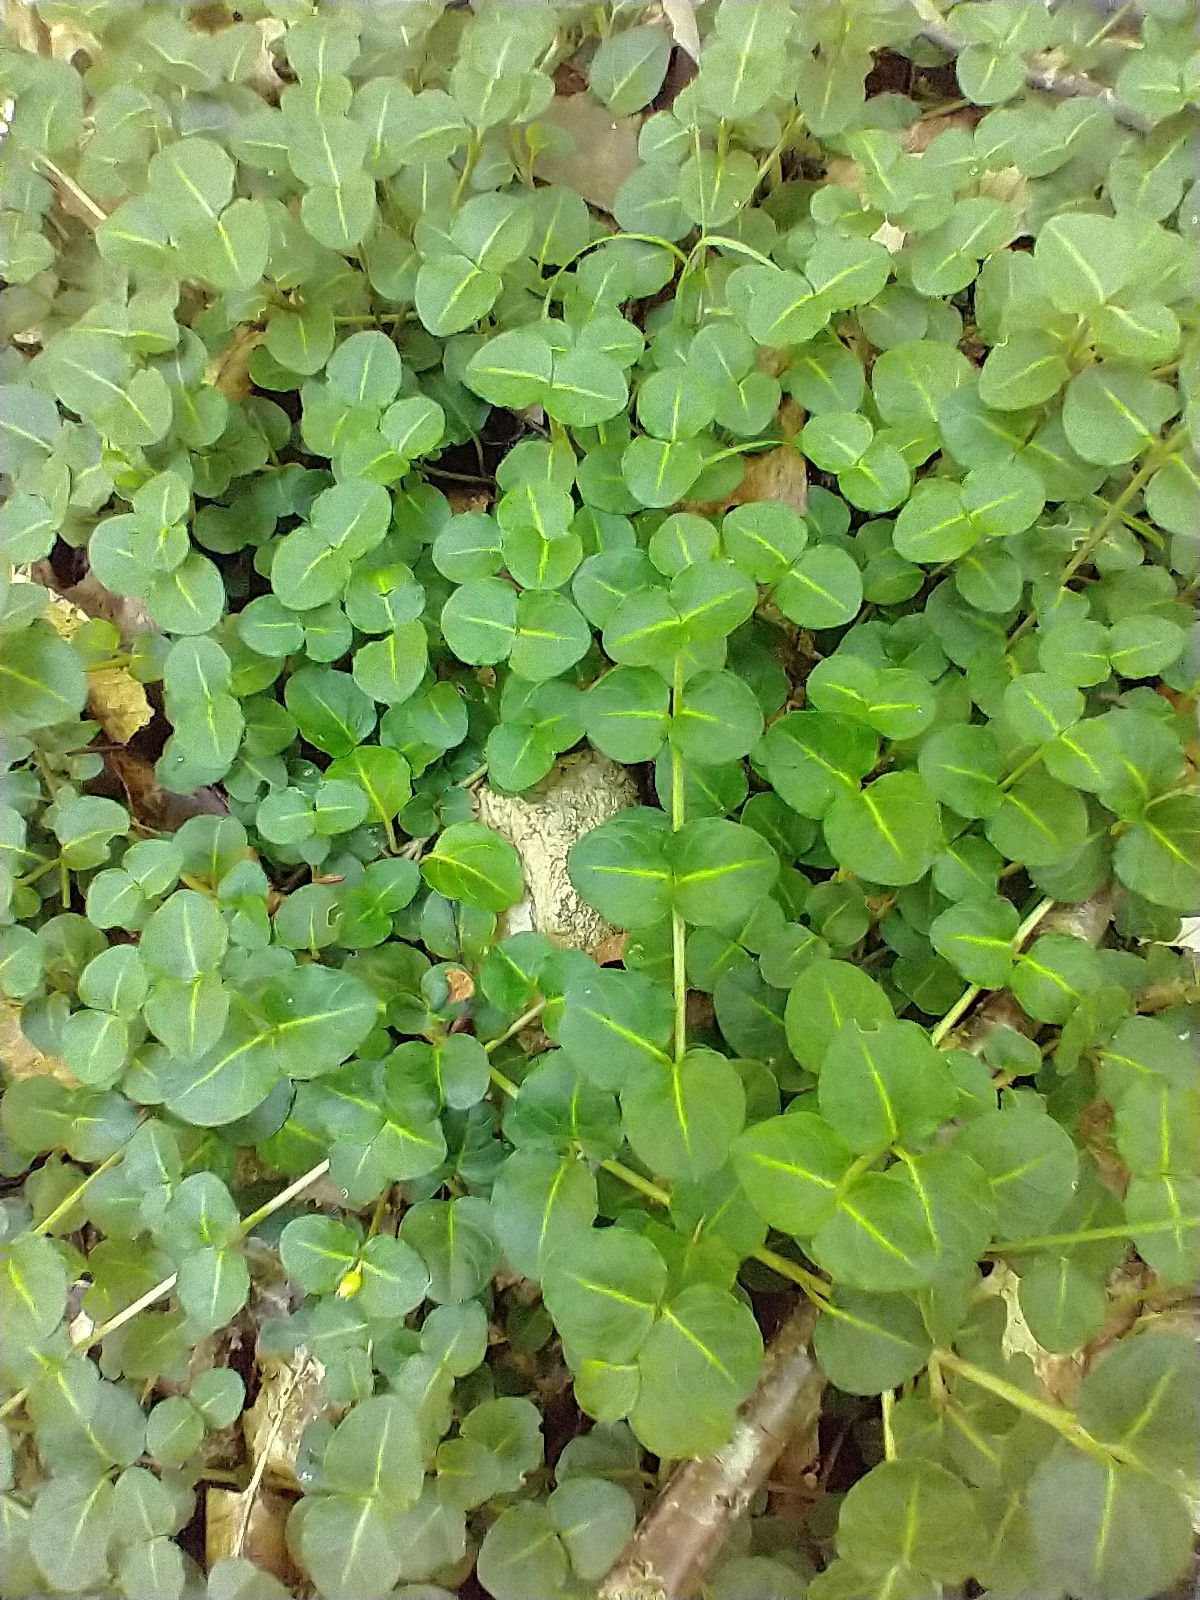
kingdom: Plantae
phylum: Tracheophyta
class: Magnoliopsida
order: Gentianales
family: Rubiaceae
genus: Mitchella
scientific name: Mitchella repens
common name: Partridge-berry
